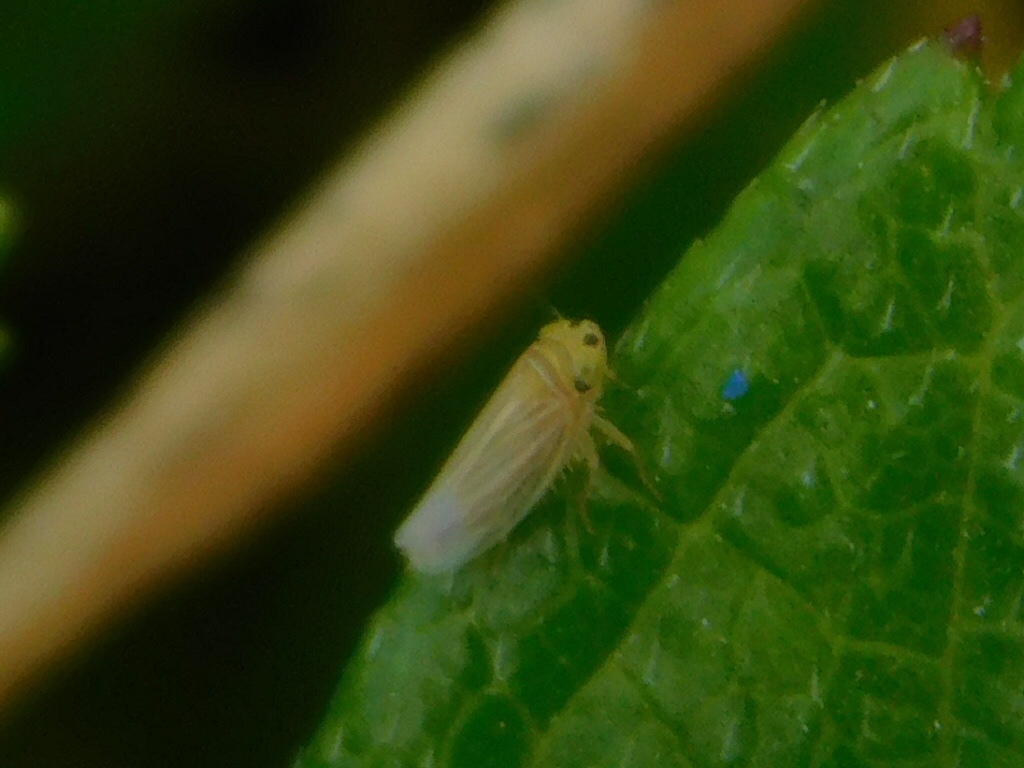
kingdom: Animalia
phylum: Arthropoda
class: Insecta
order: Hemiptera
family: Cicadellidae
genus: Graminella
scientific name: Graminella villicus
